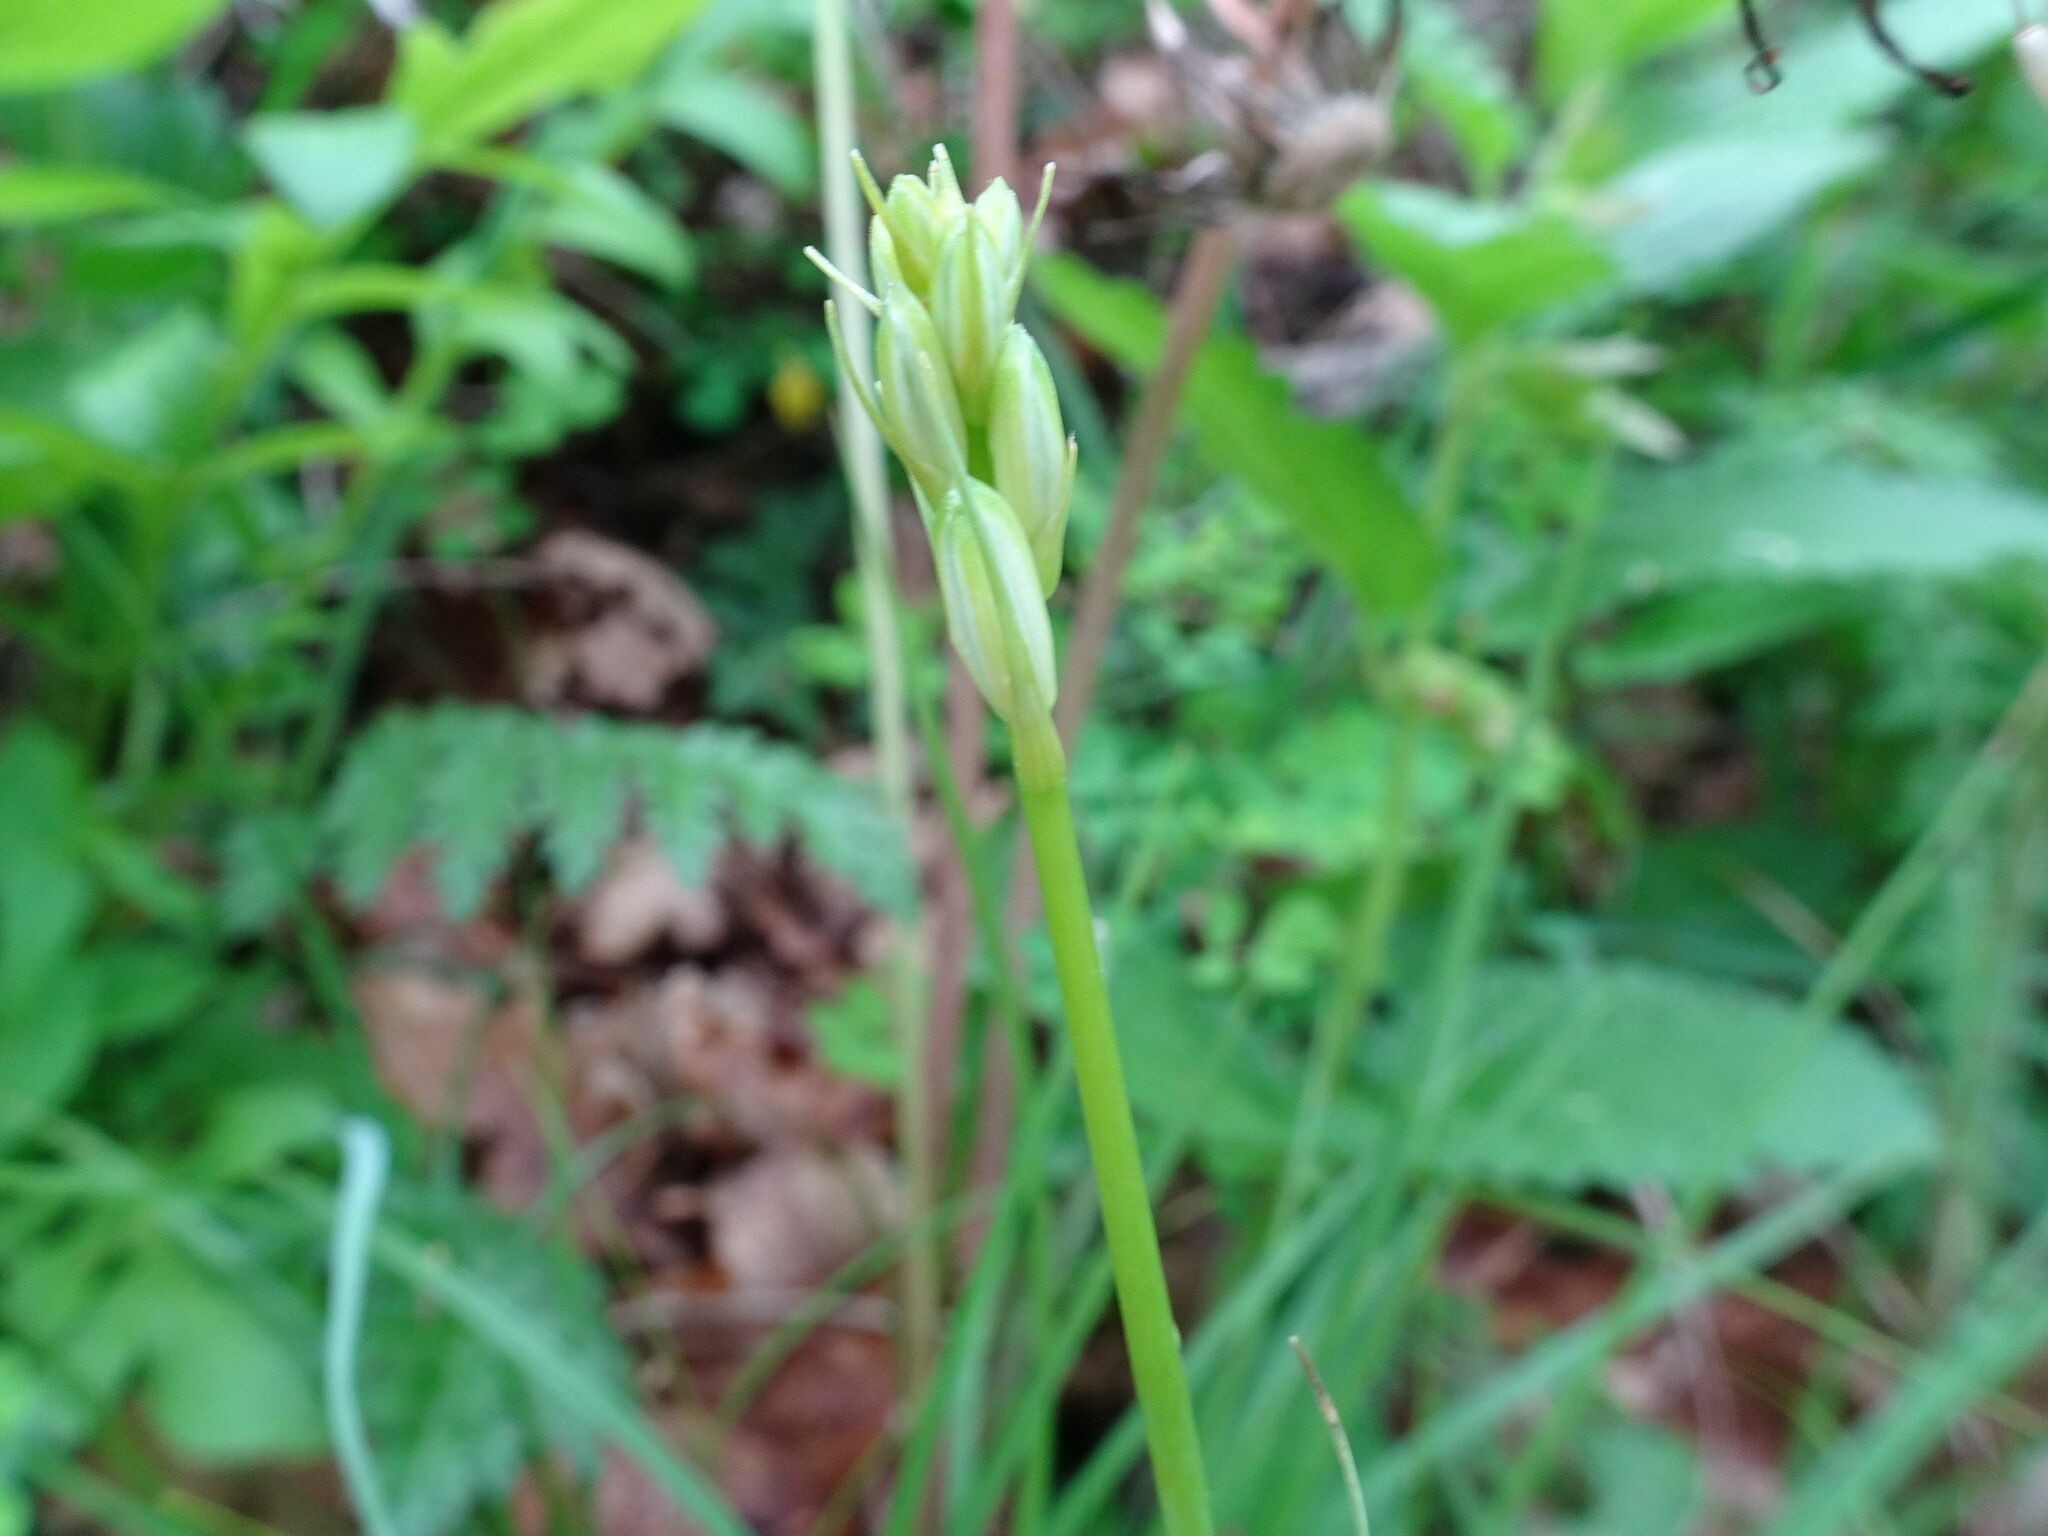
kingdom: Plantae
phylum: Tracheophyta
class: Liliopsida
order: Asparagales
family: Asparagaceae
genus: Anthericum
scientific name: Anthericum liliago
